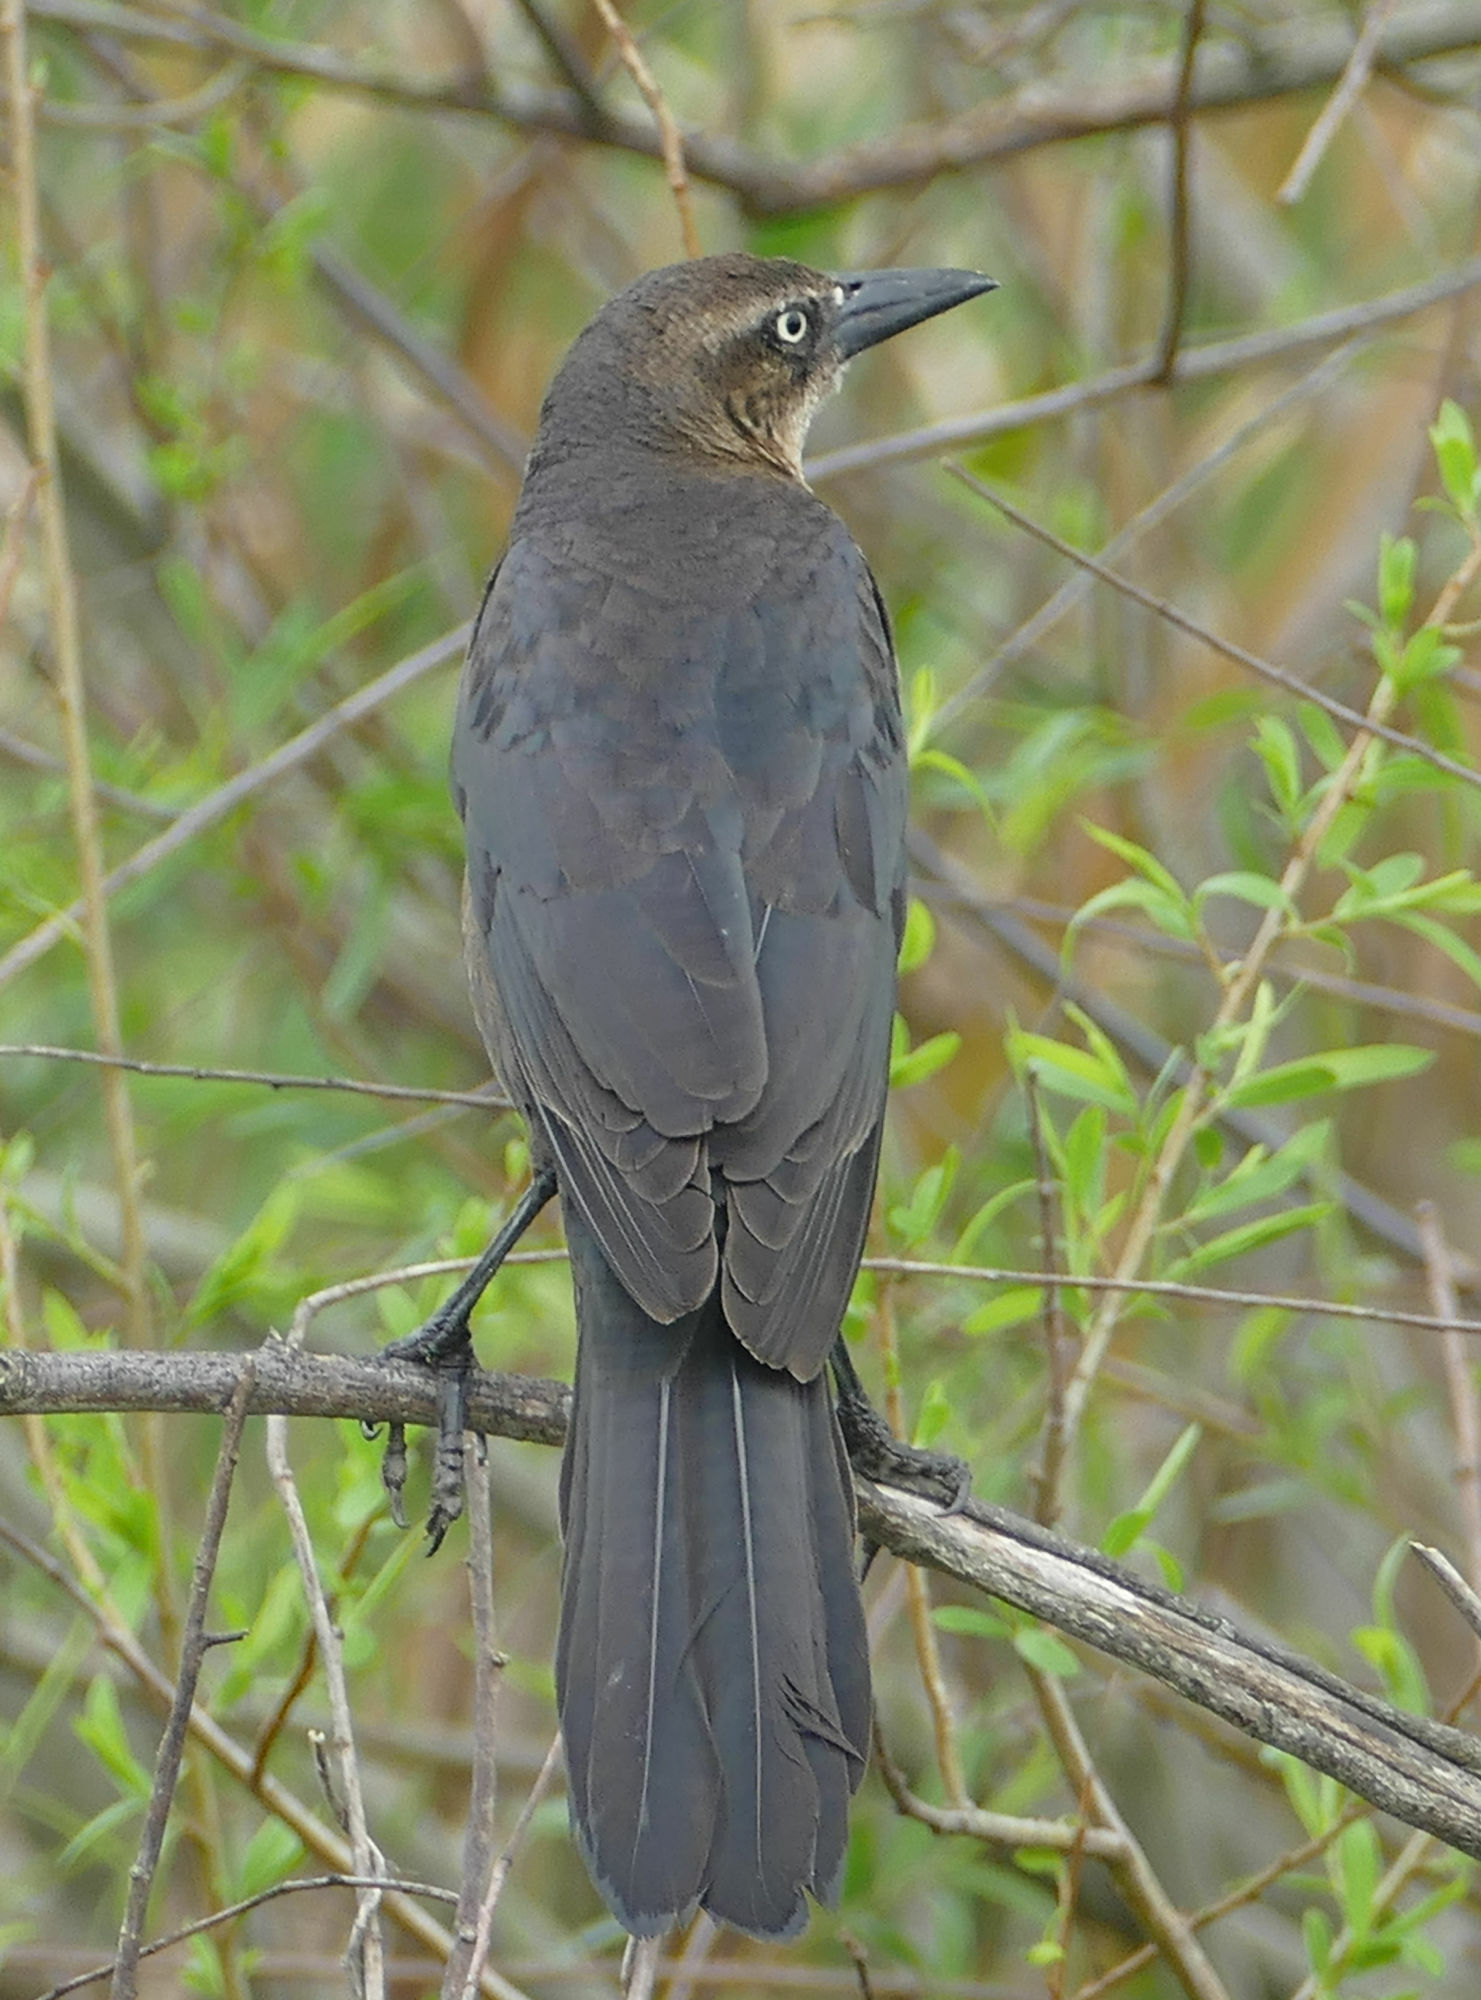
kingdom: Animalia
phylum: Chordata
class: Aves
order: Passeriformes
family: Icteridae
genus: Quiscalus
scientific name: Quiscalus mexicanus
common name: Great-tailed grackle
